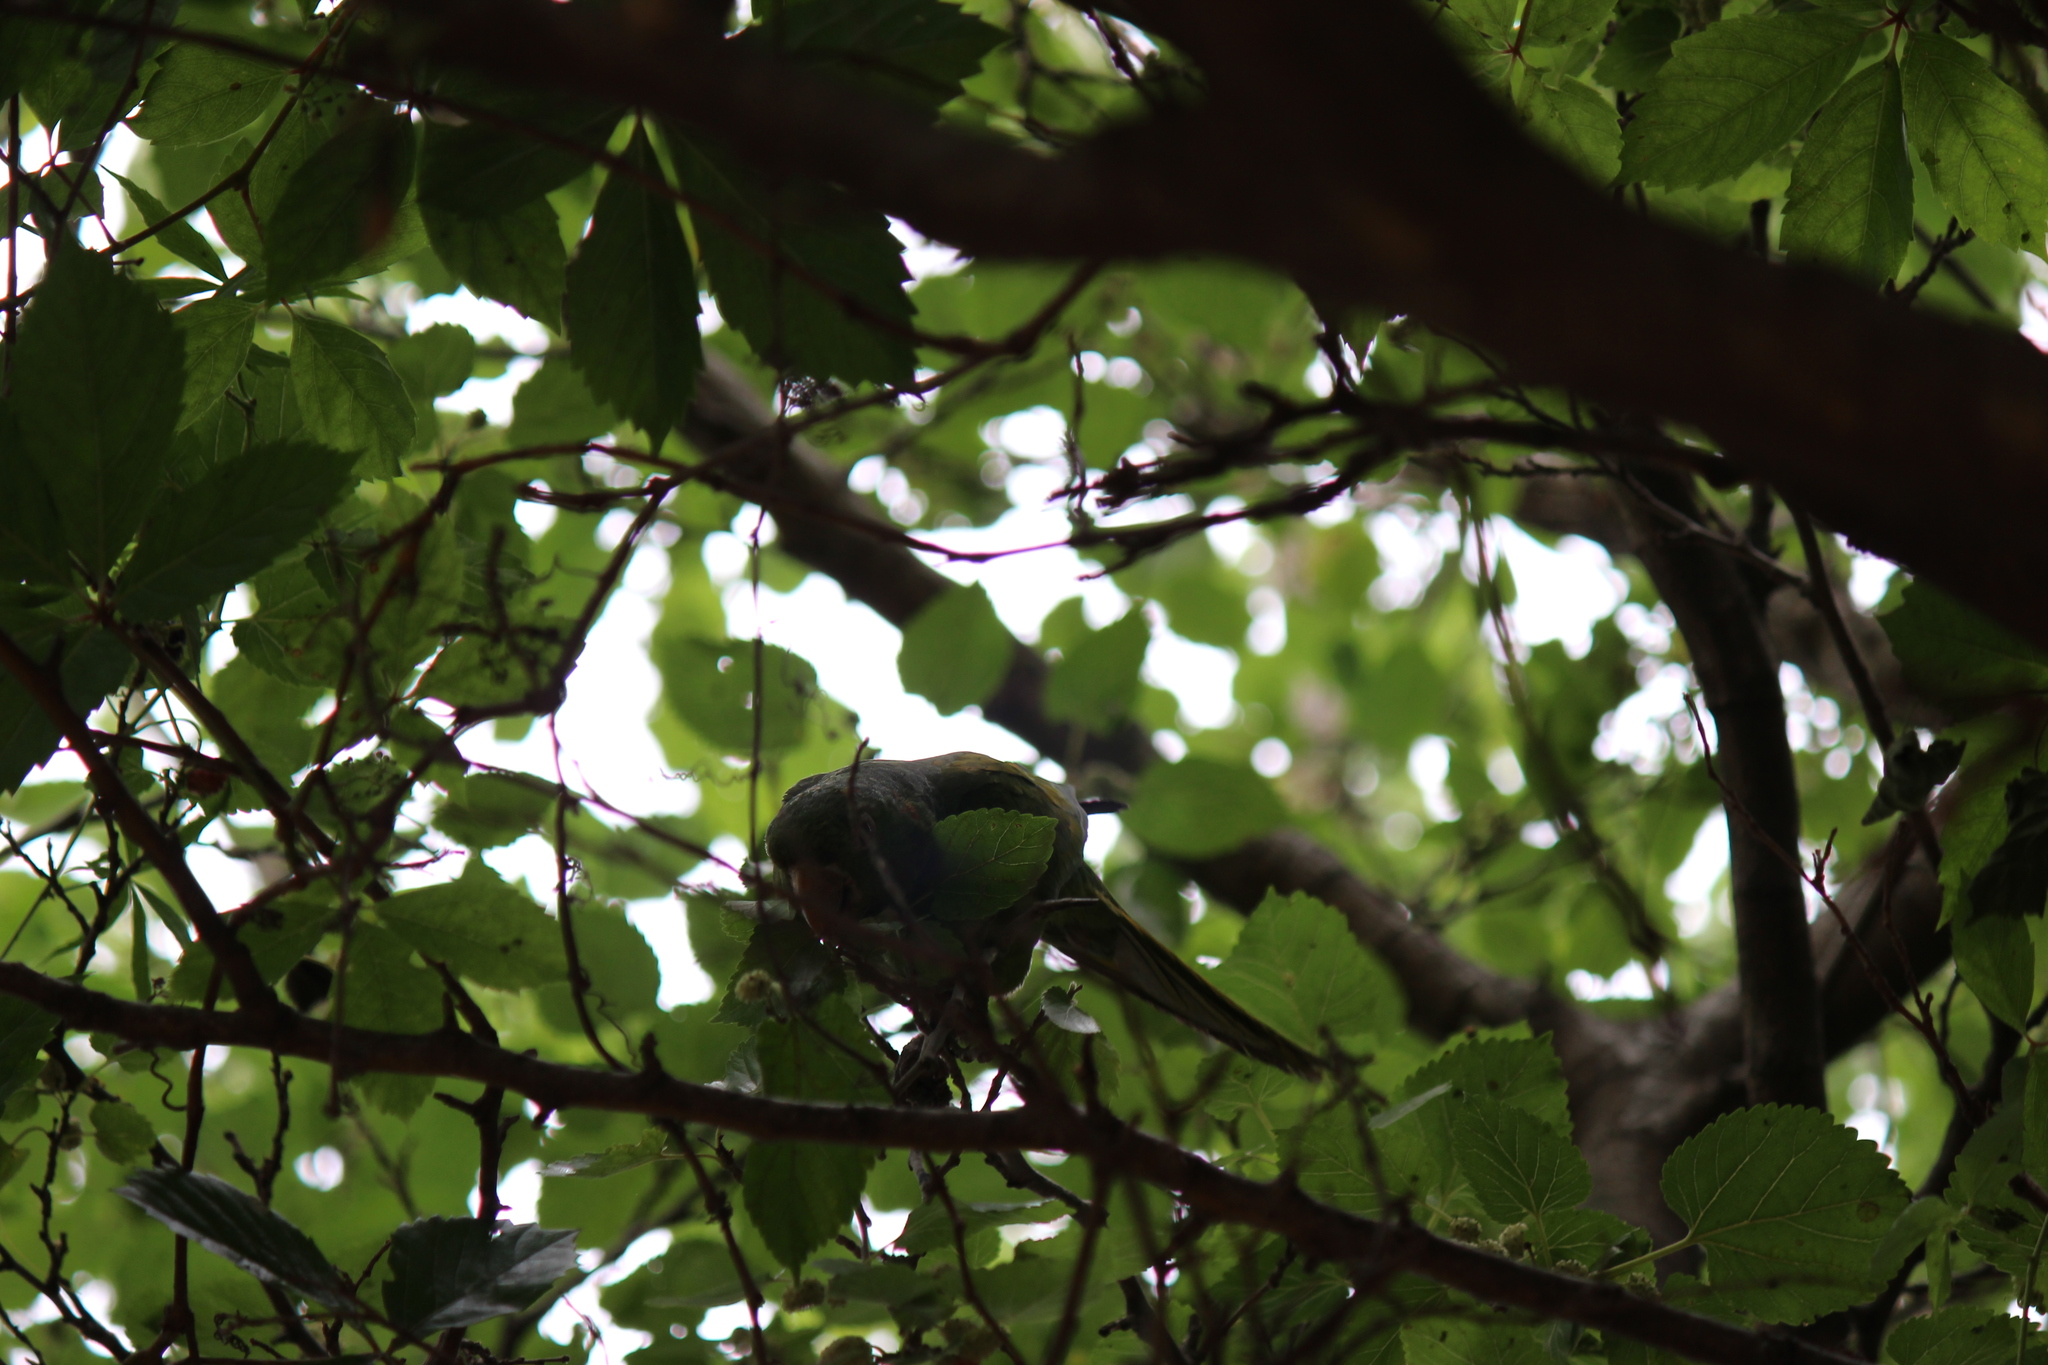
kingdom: Animalia
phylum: Chordata
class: Aves
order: Psittaciformes
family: Psittacidae
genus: Aratinga
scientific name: Aratinga leucophthalma
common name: White-eyed parakeet
